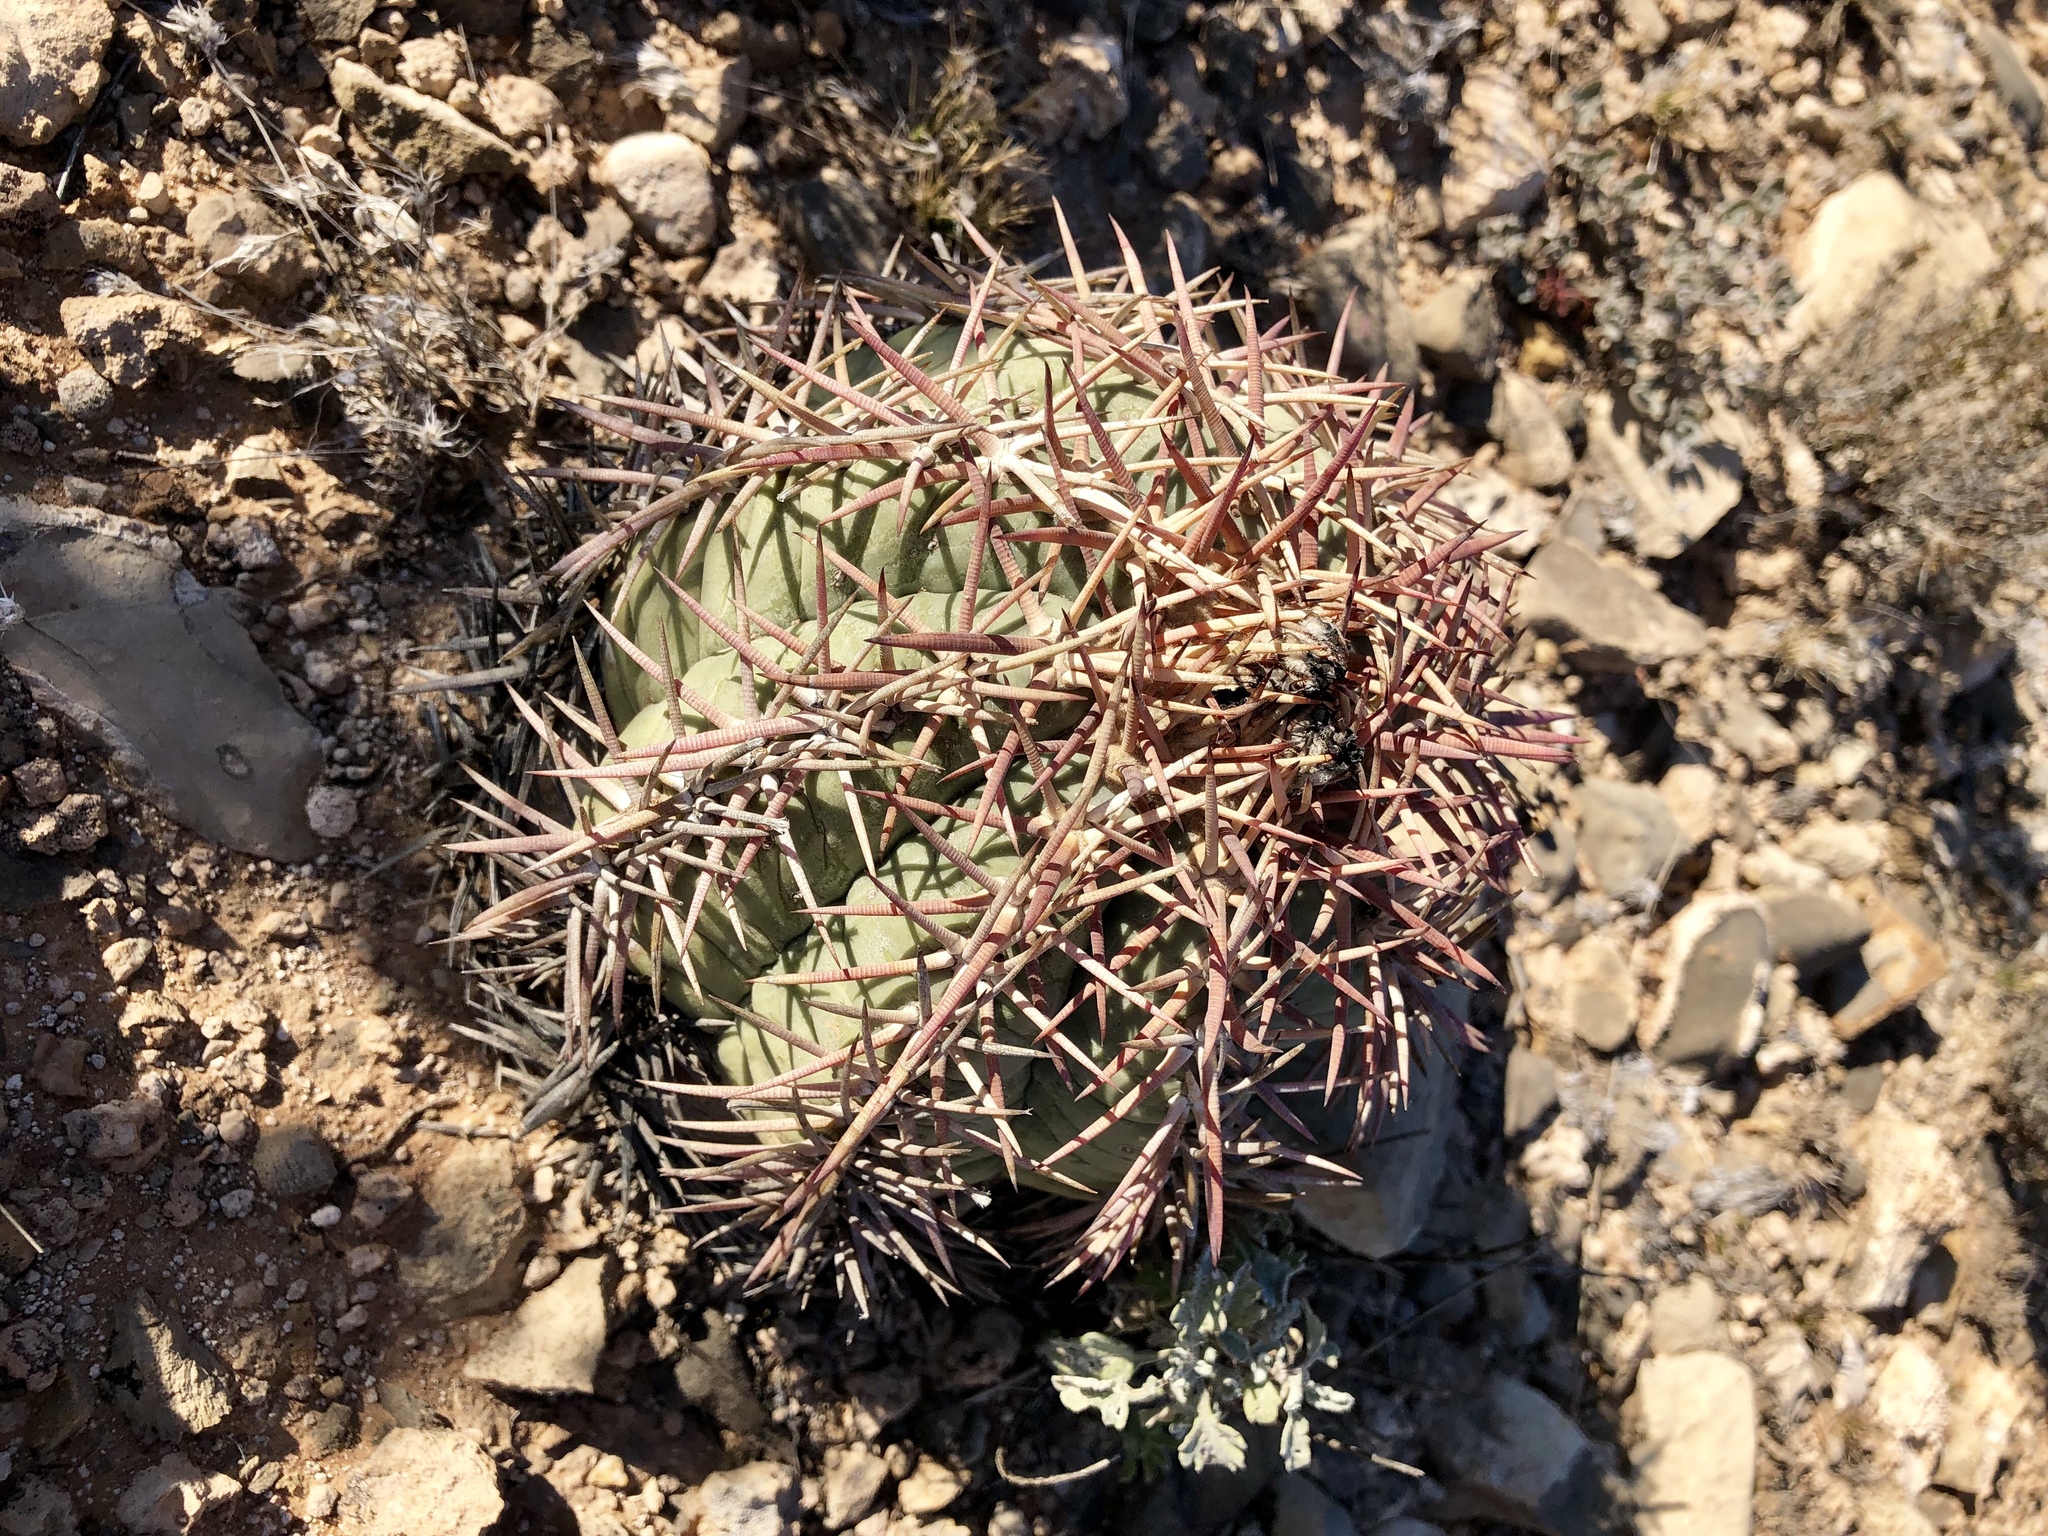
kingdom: Plantae
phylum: Tracheophyta
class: Magnoliopsida
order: Caryophyllales
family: Cactaceae
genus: Echinocactus
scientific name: Echinocactus horizonthalonius
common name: Devilshead
